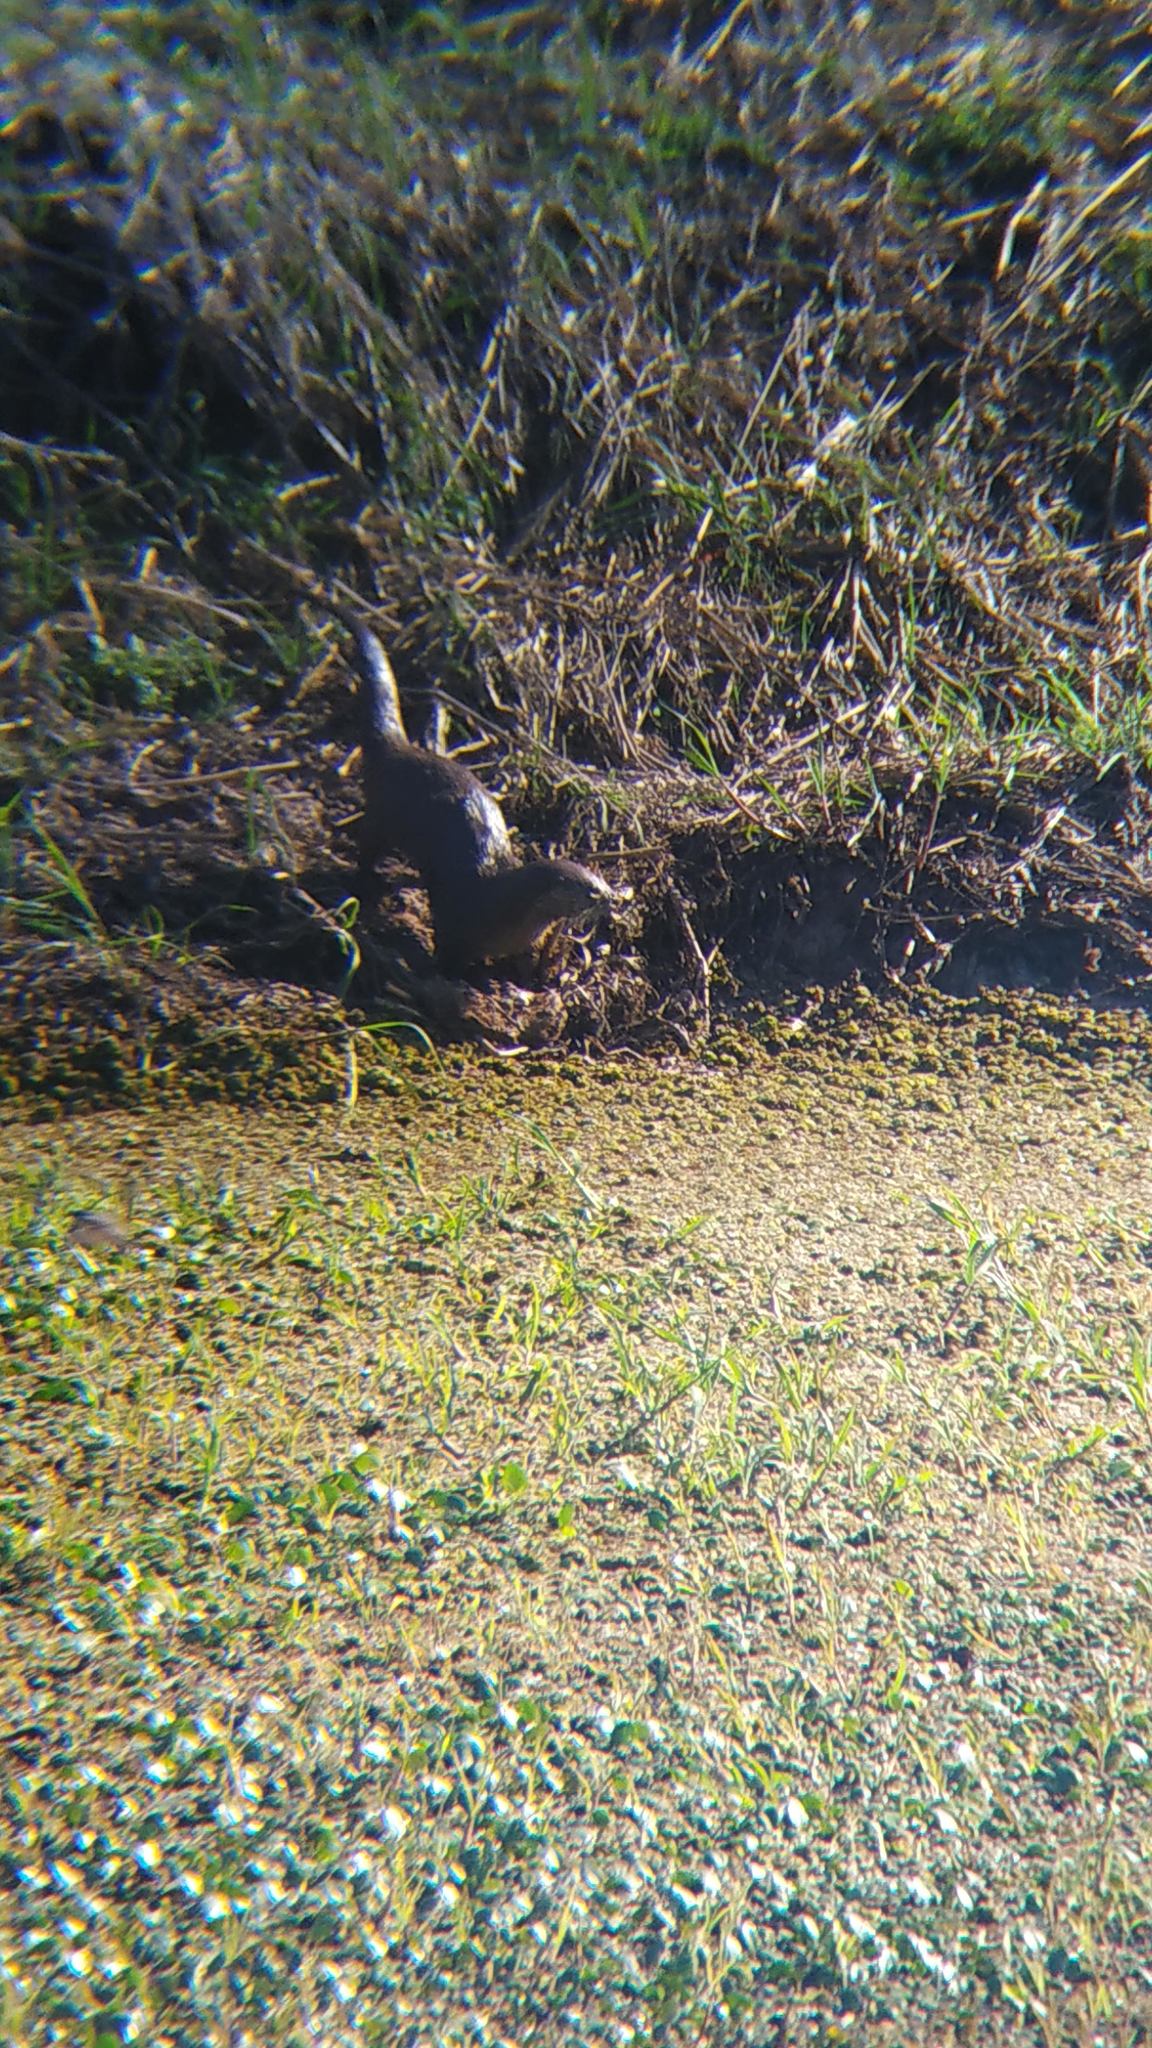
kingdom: Animalia
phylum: Chordata
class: Mammalia
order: Carnivora
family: Mustelidae
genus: Lontra
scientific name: Lontra longicaudis
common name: Neotropical otter
